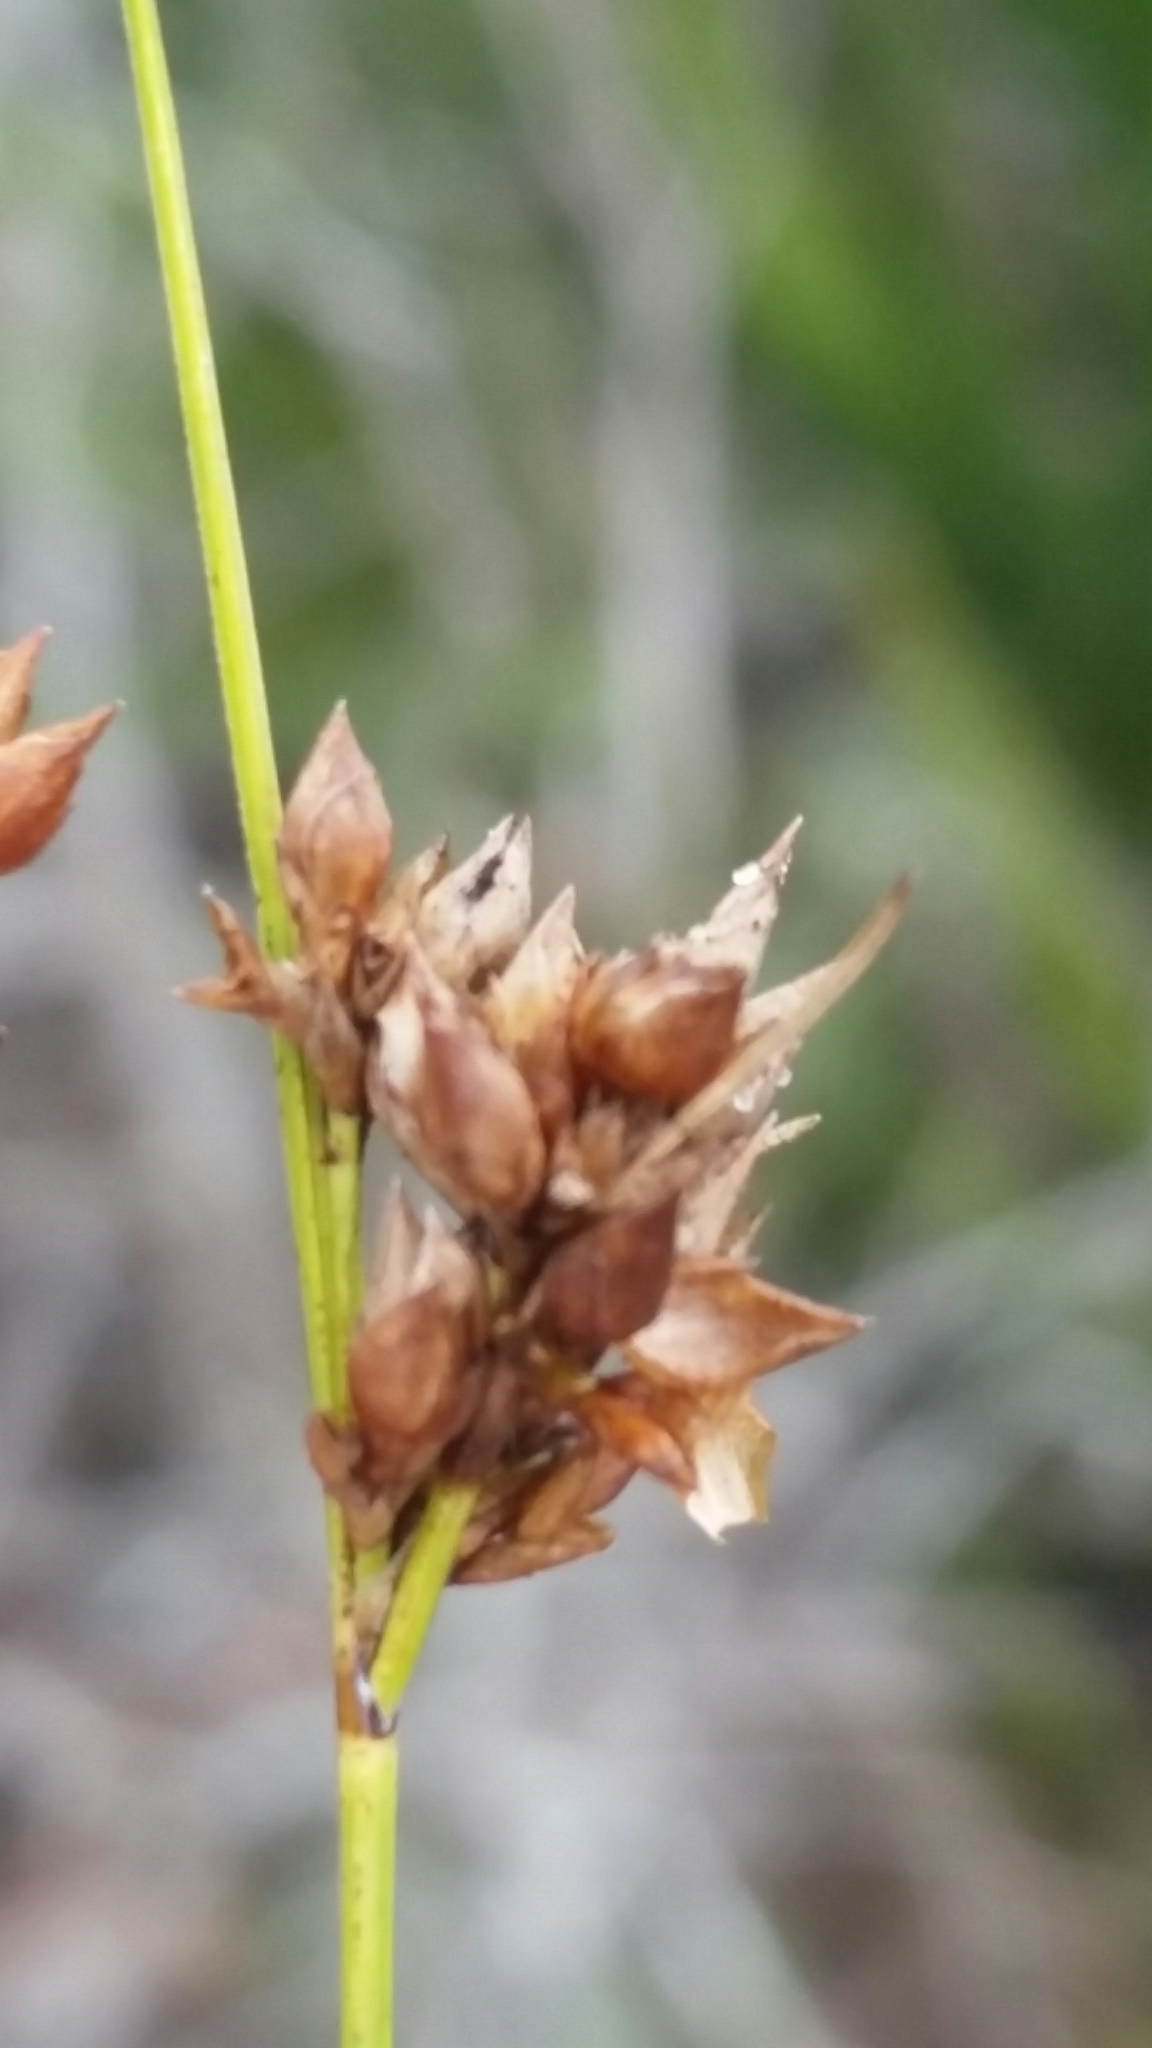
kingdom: Plantae
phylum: Tracheophyta
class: Liliopsida
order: Poales
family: Cyperaceae
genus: Rhynchospora
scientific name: Rhynchospora intermedia
